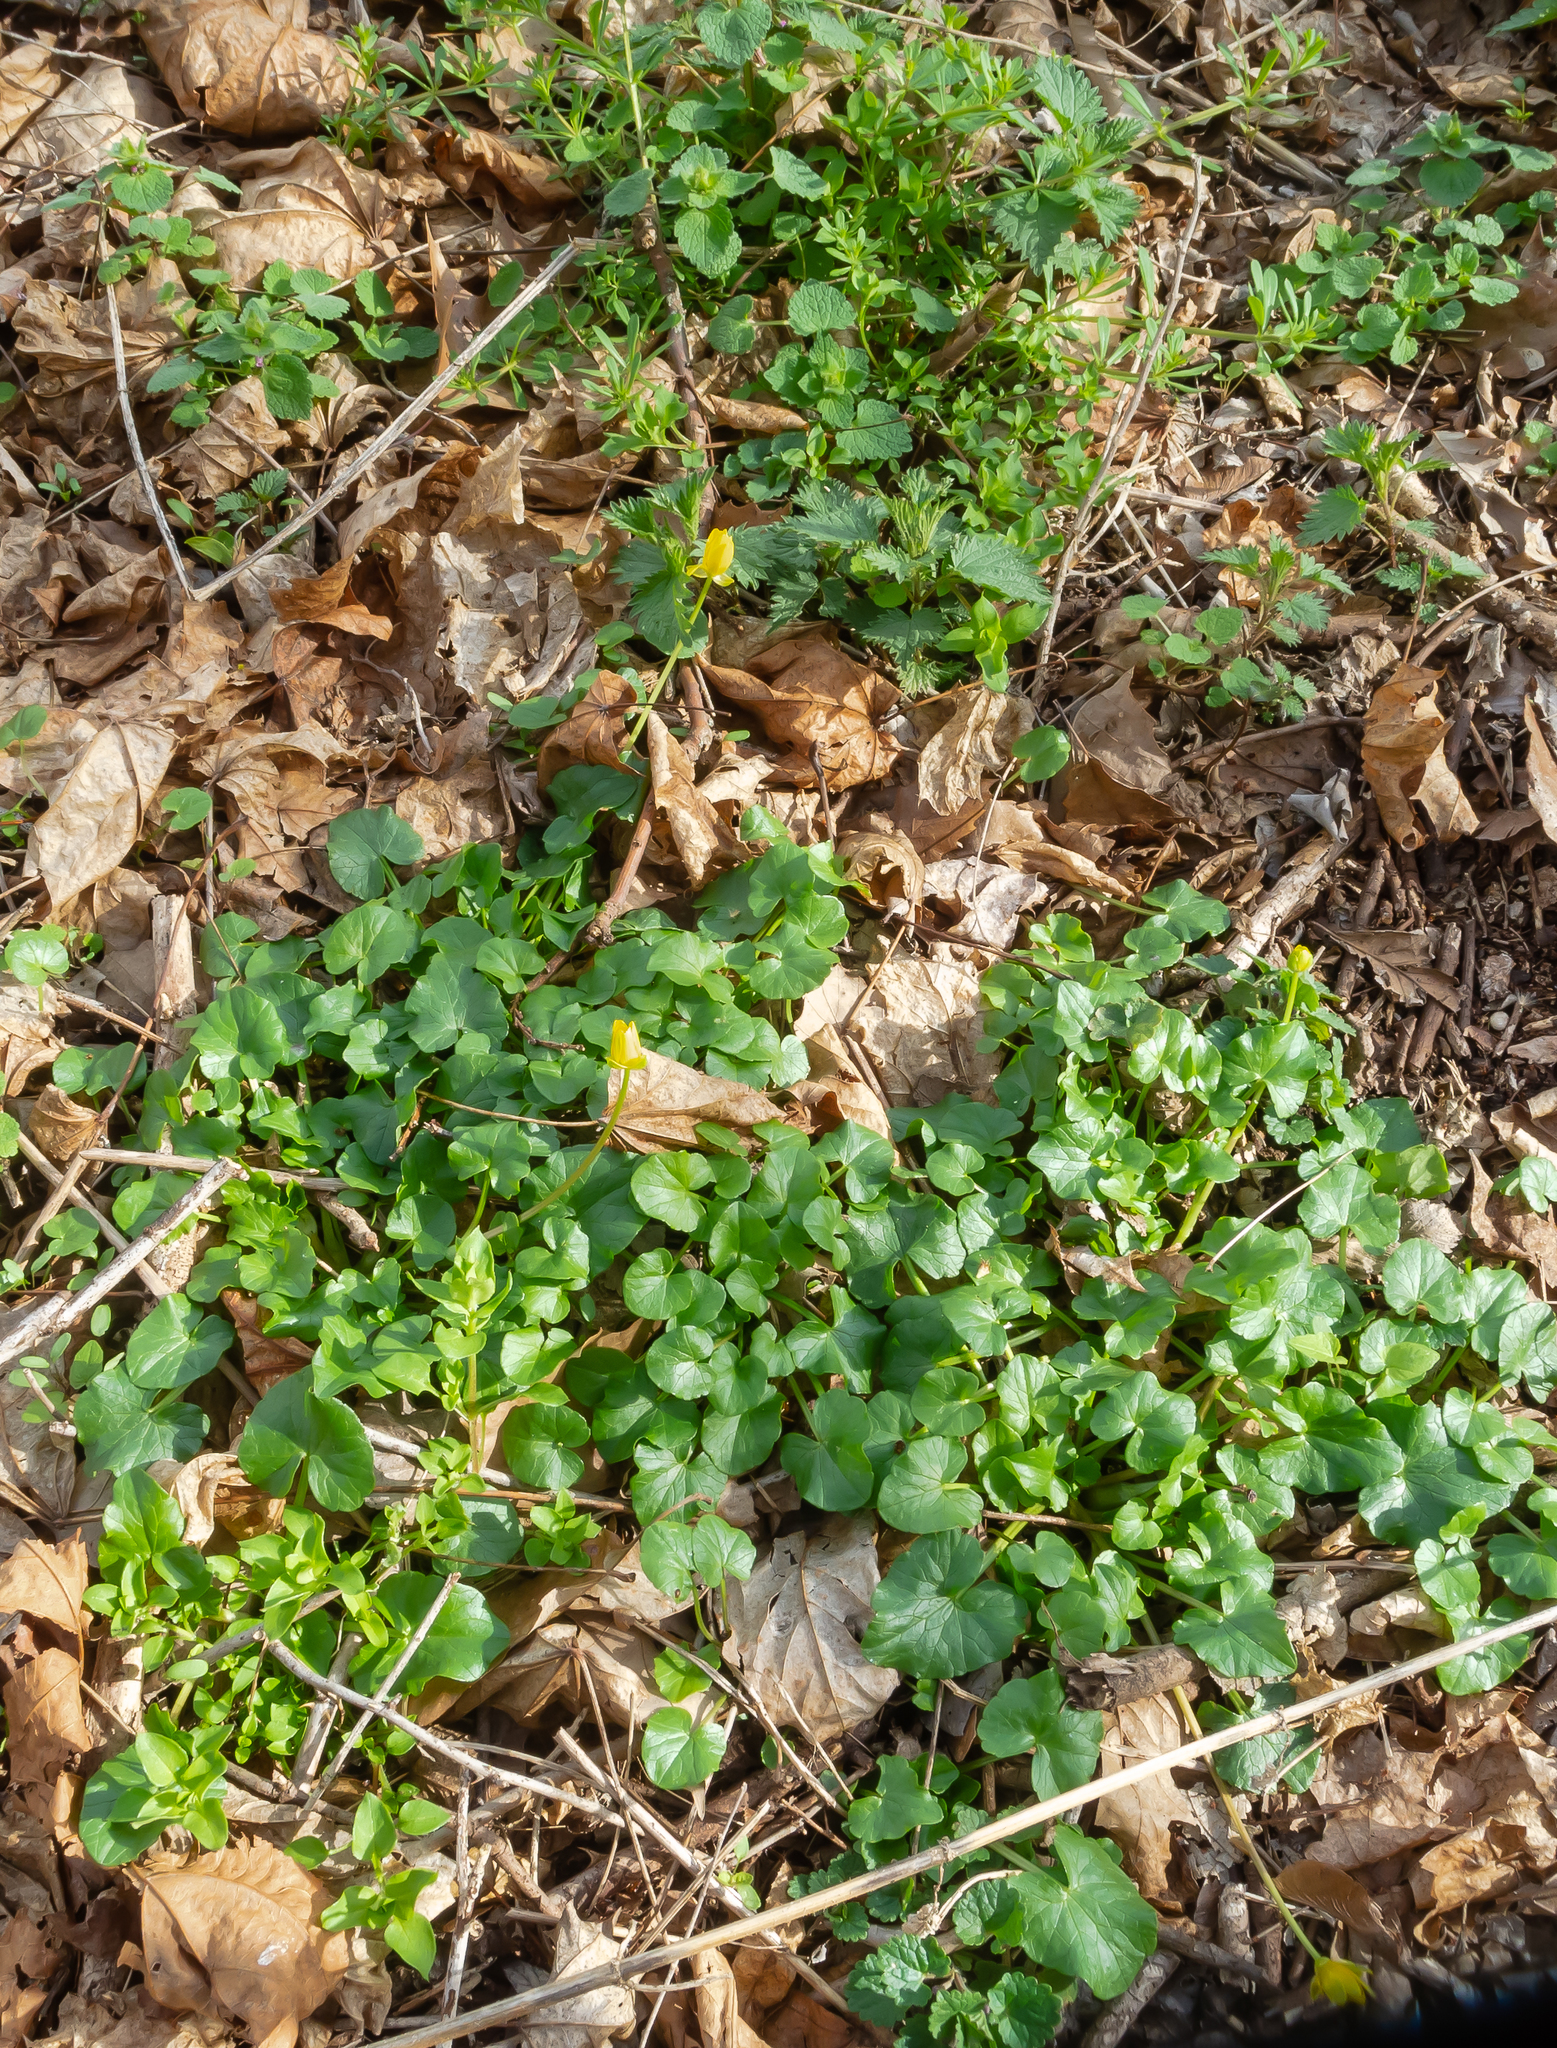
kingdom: Plantae
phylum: Tracheophyta
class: Magnoliopsida
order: Ranunculales
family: Ranunculaceae
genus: Ficaria
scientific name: Ficaria verna
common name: Lesser celandine
